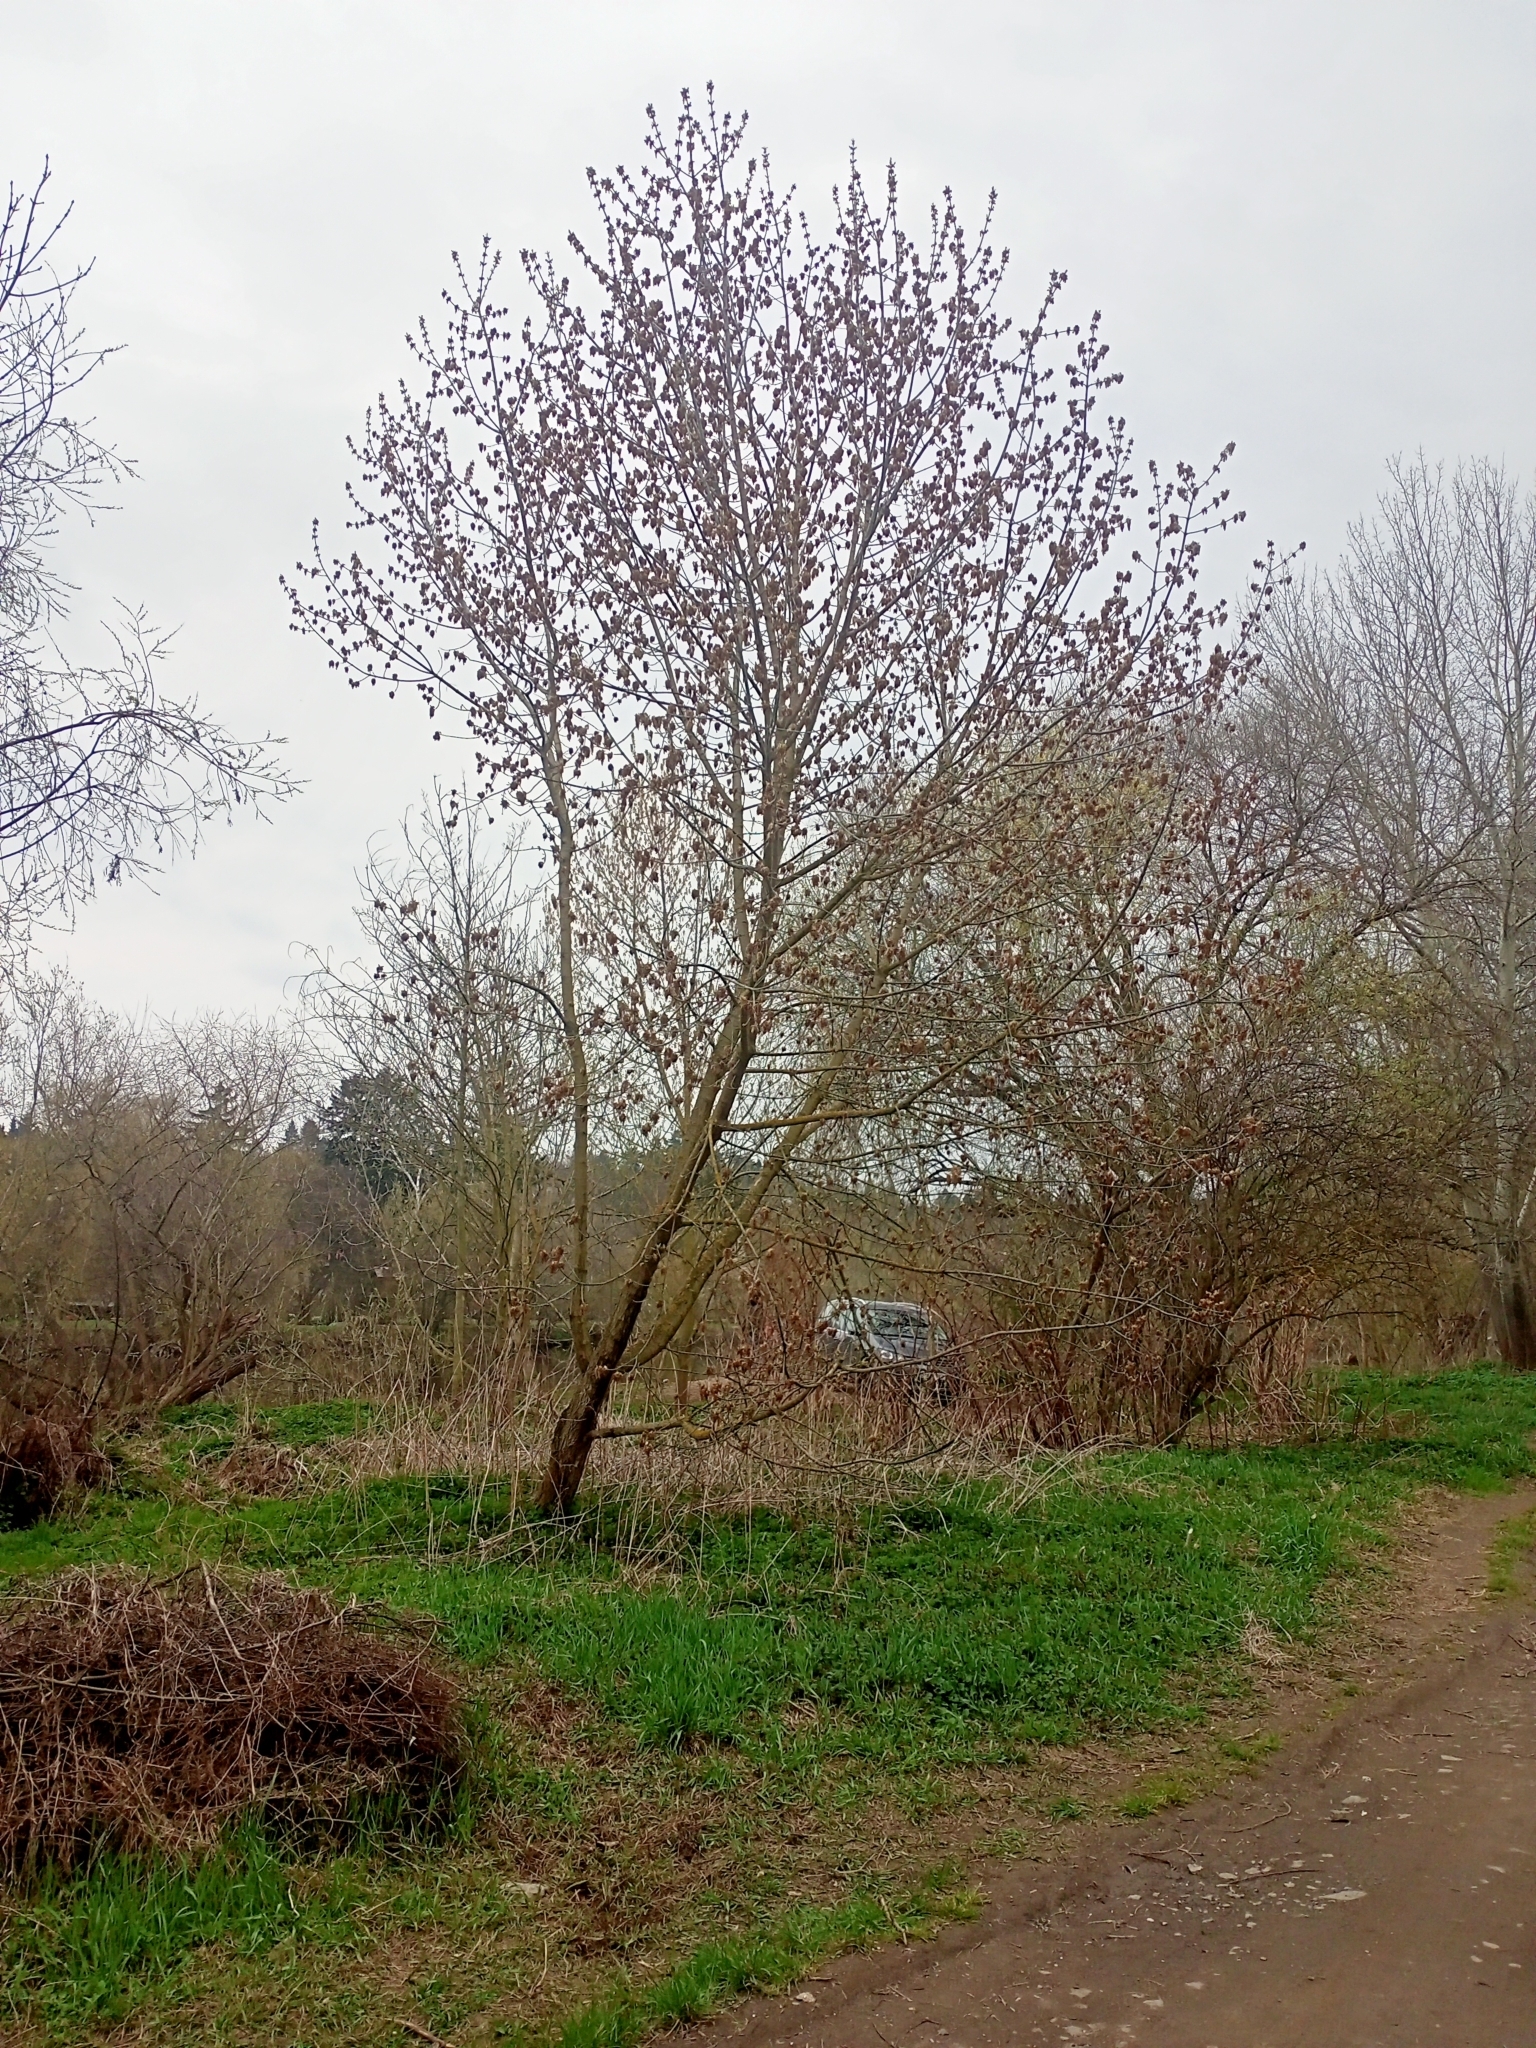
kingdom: Plantae
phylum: Tracheophyta
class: Magnoliopsida
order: Sapindales
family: Sapindaceae
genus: Acer
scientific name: Acer negundo
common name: Ashleaf maple
